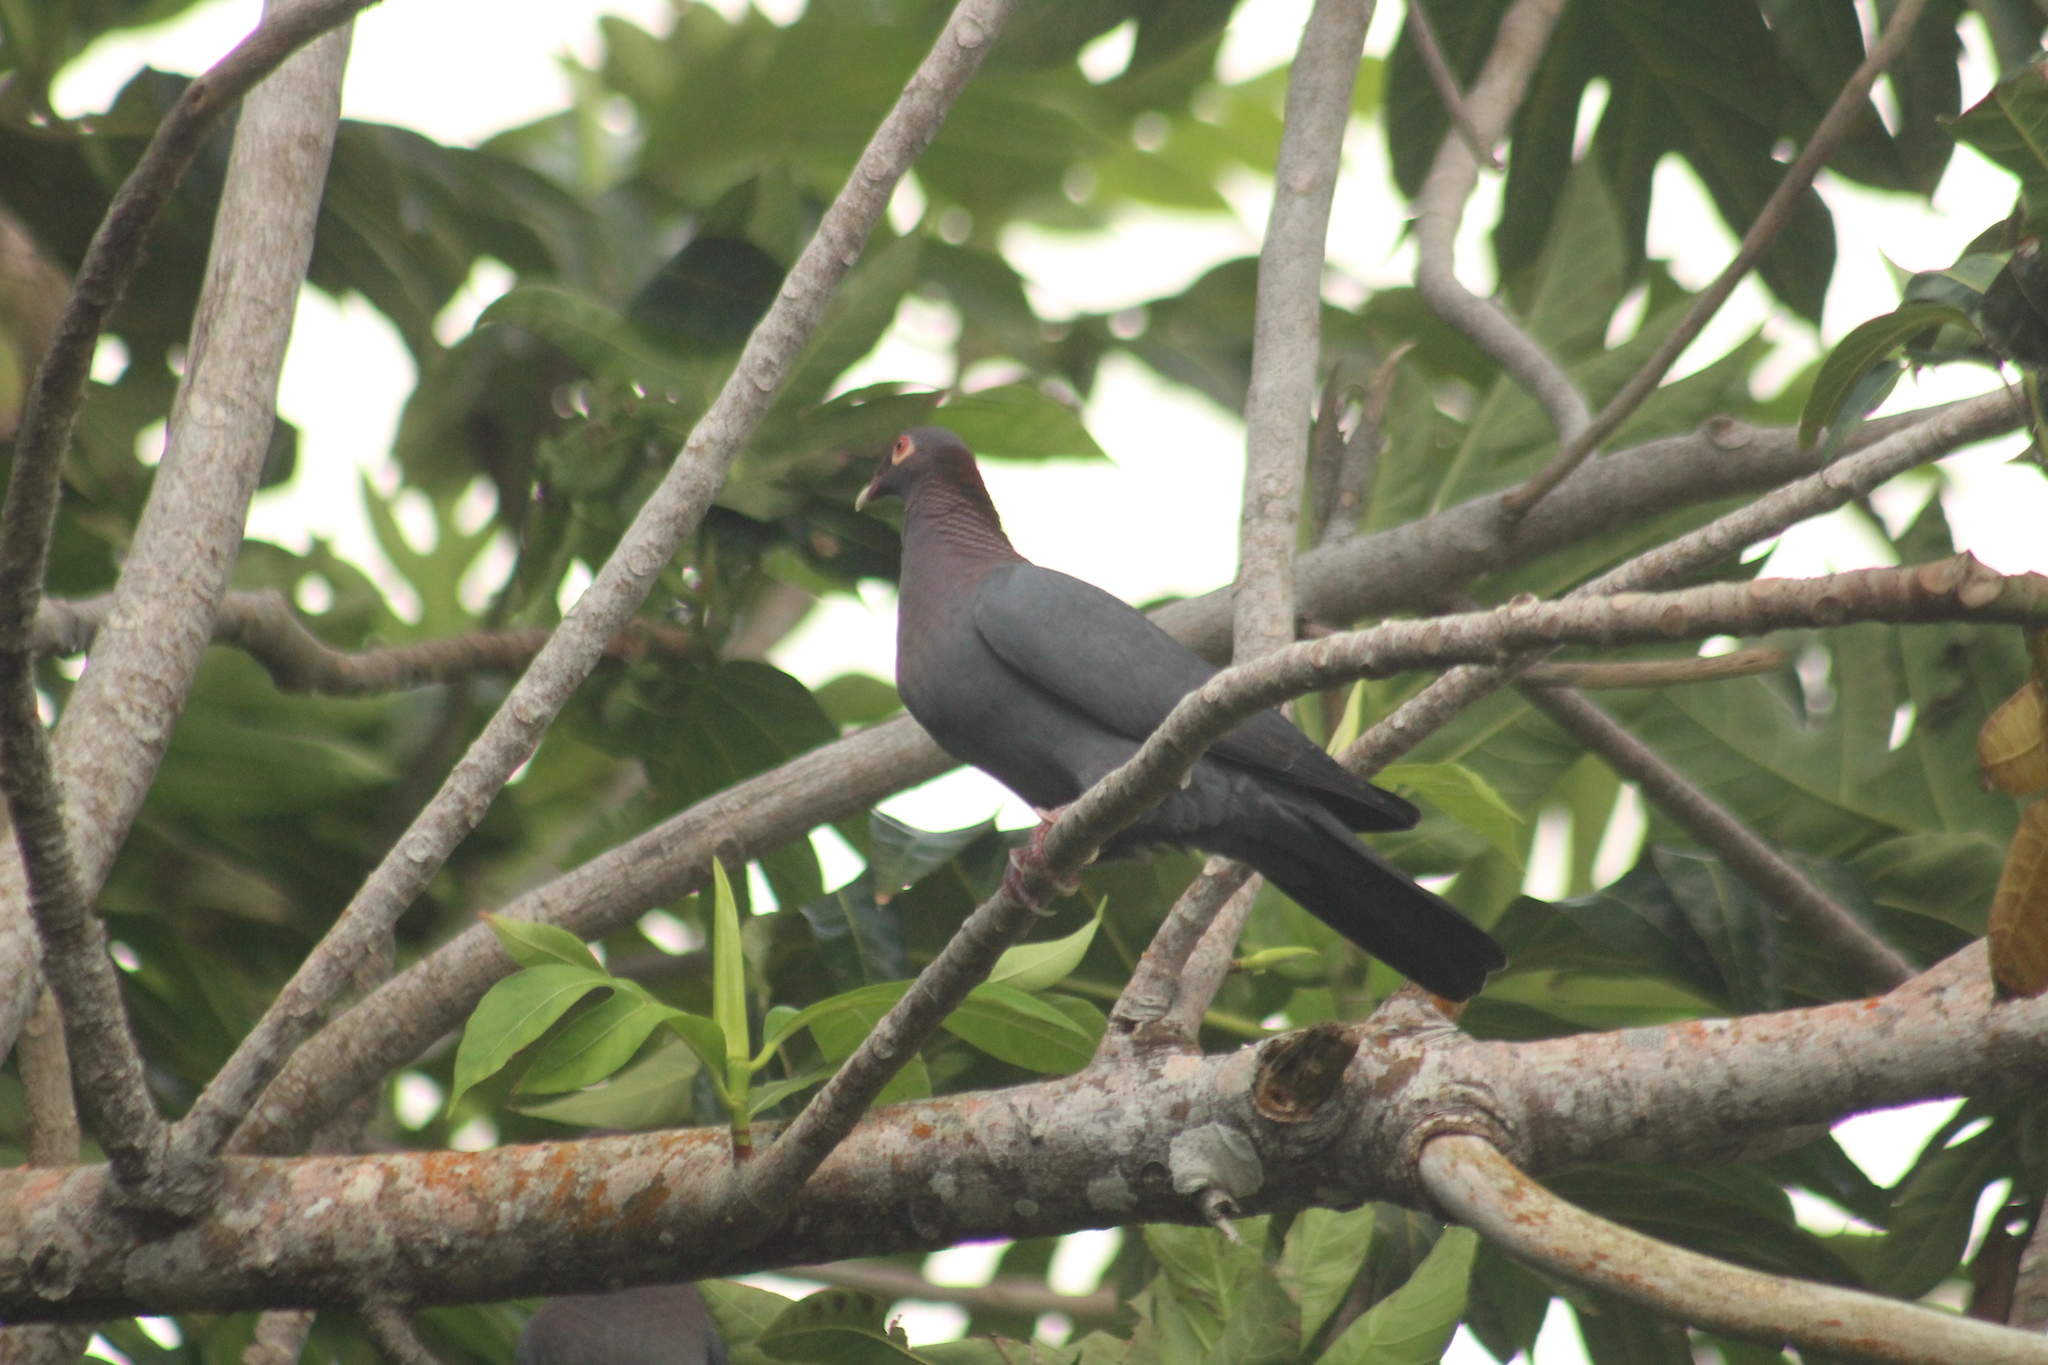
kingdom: Animalia
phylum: Chordata
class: Aves
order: Columbiformes
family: Columbidae
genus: Patagioenas
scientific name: Patagioenas squamosa
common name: Scaly-naped pigeon
